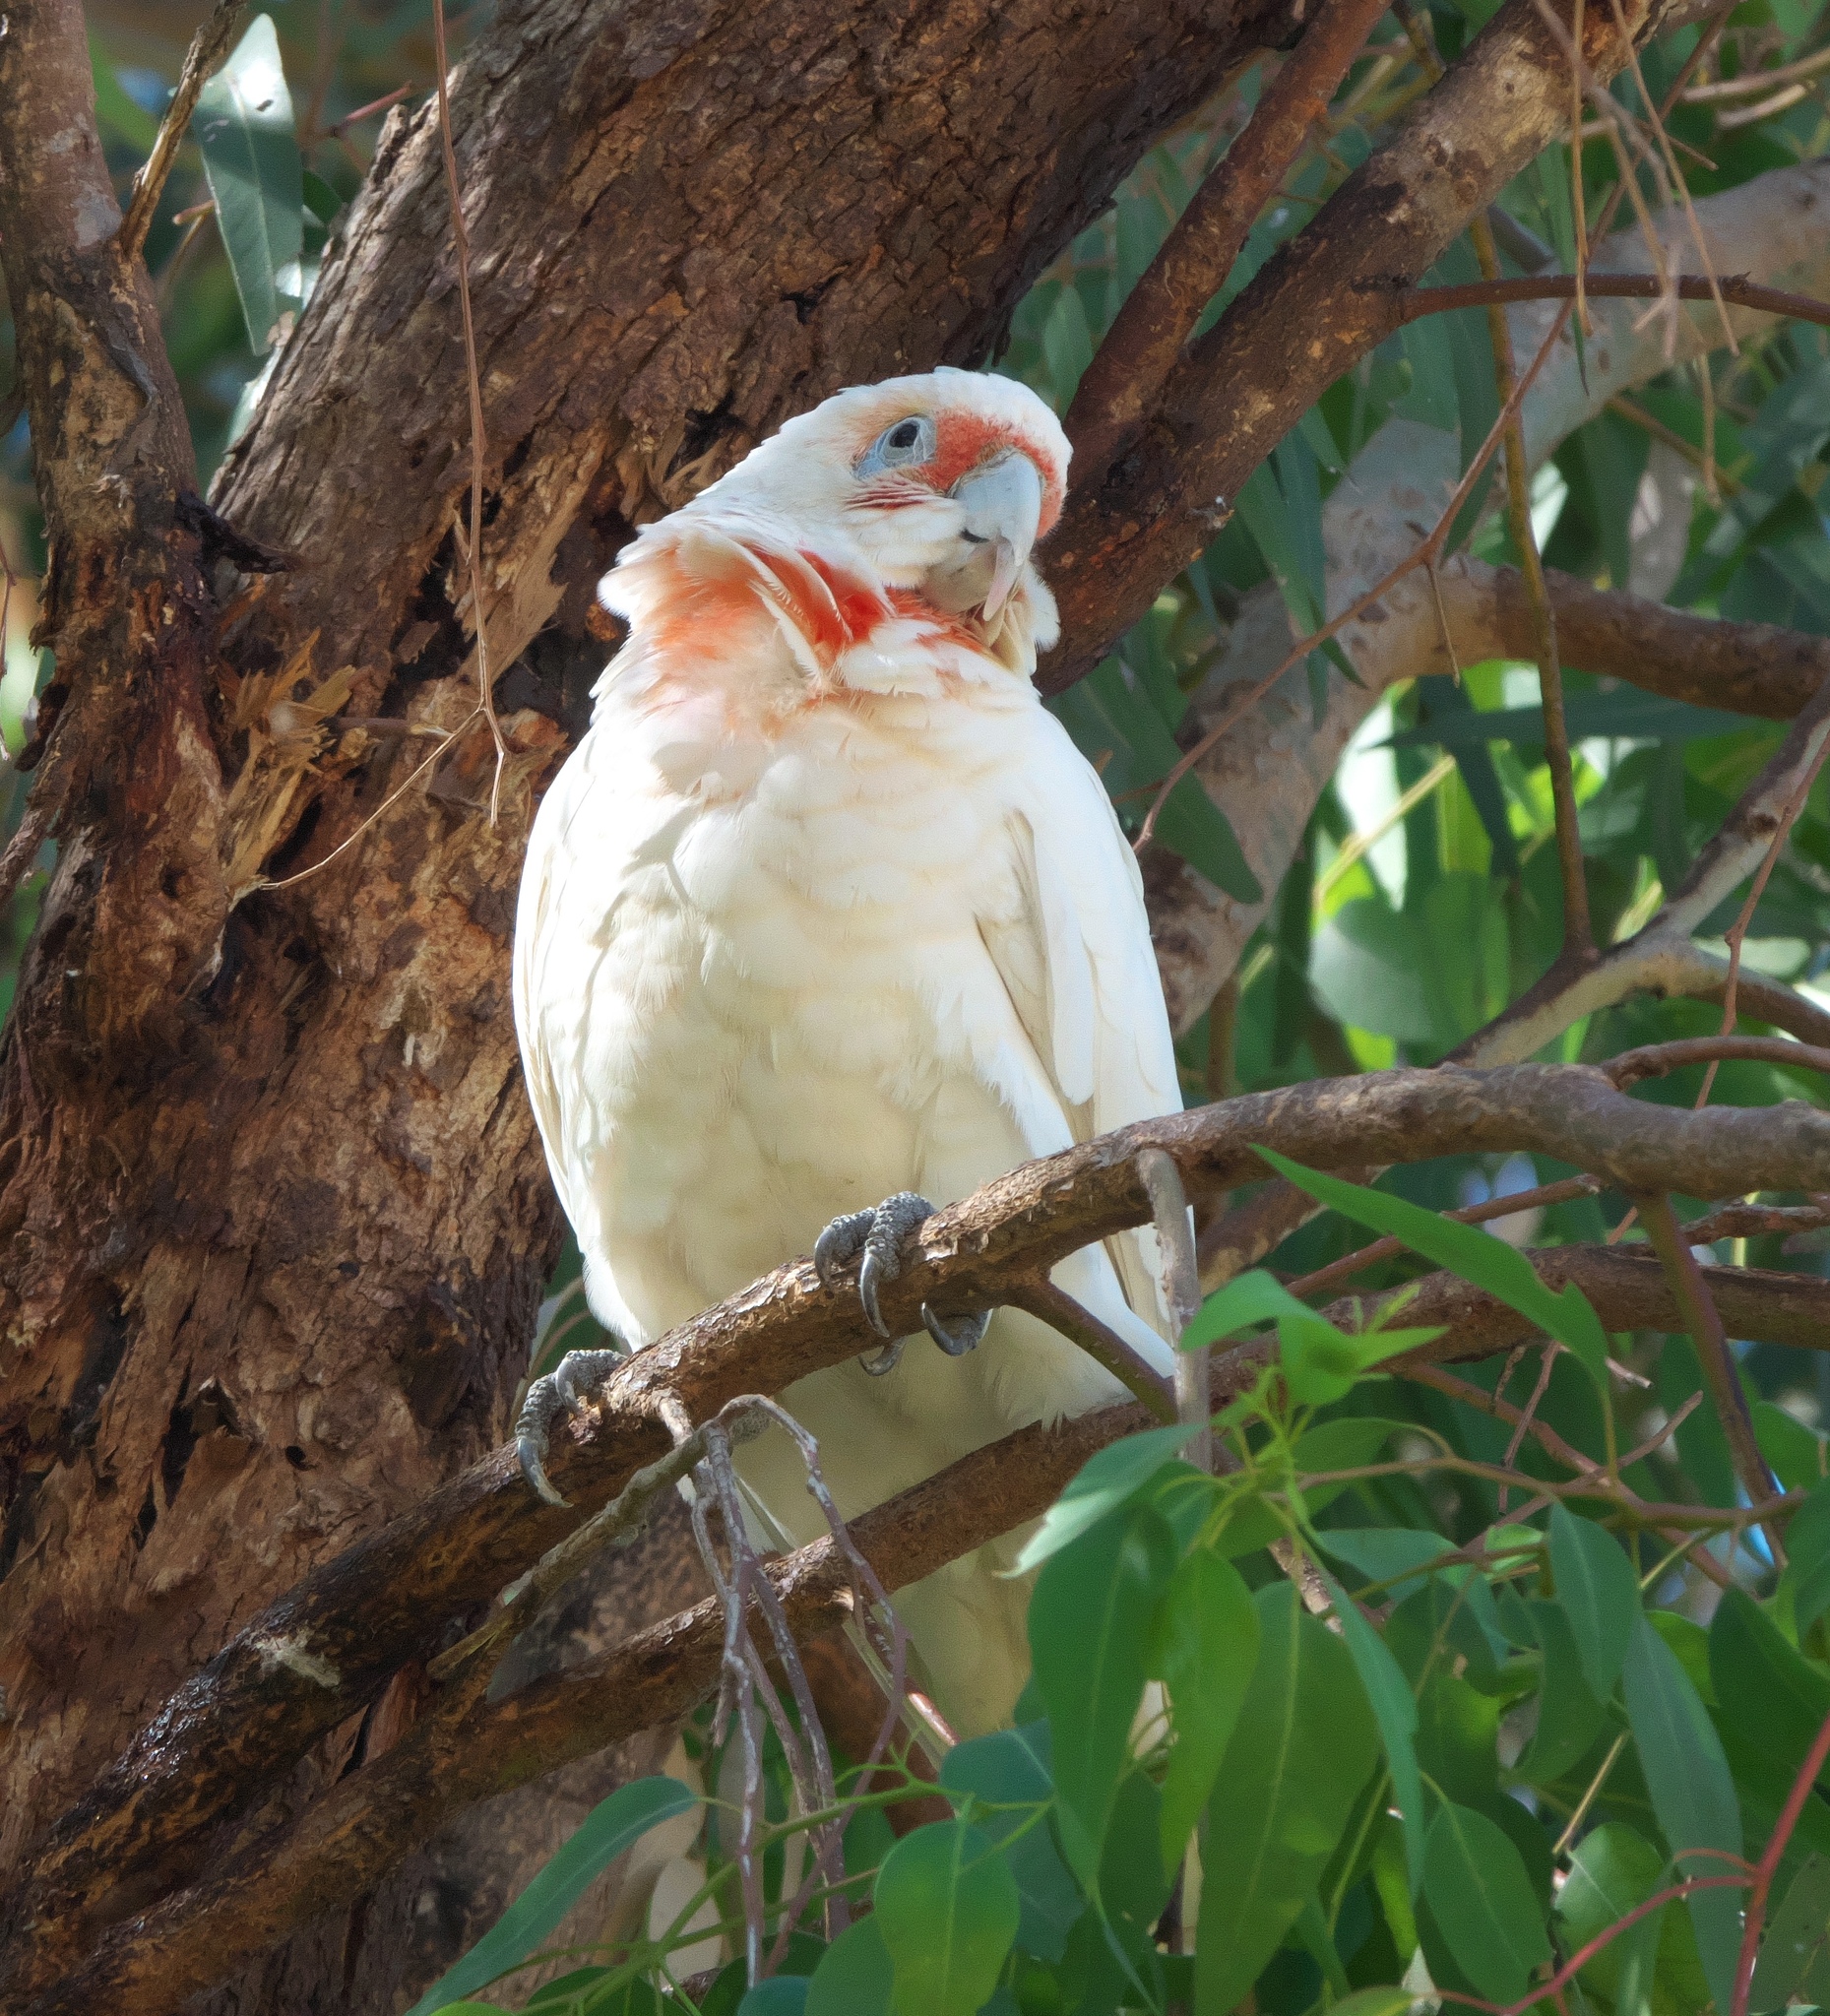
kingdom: Animalia
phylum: Chordata
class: Aves
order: Psittaciformes
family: Psittacidae
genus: Cacatua
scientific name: Cacatua tenuirostris
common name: Long-billed corella
